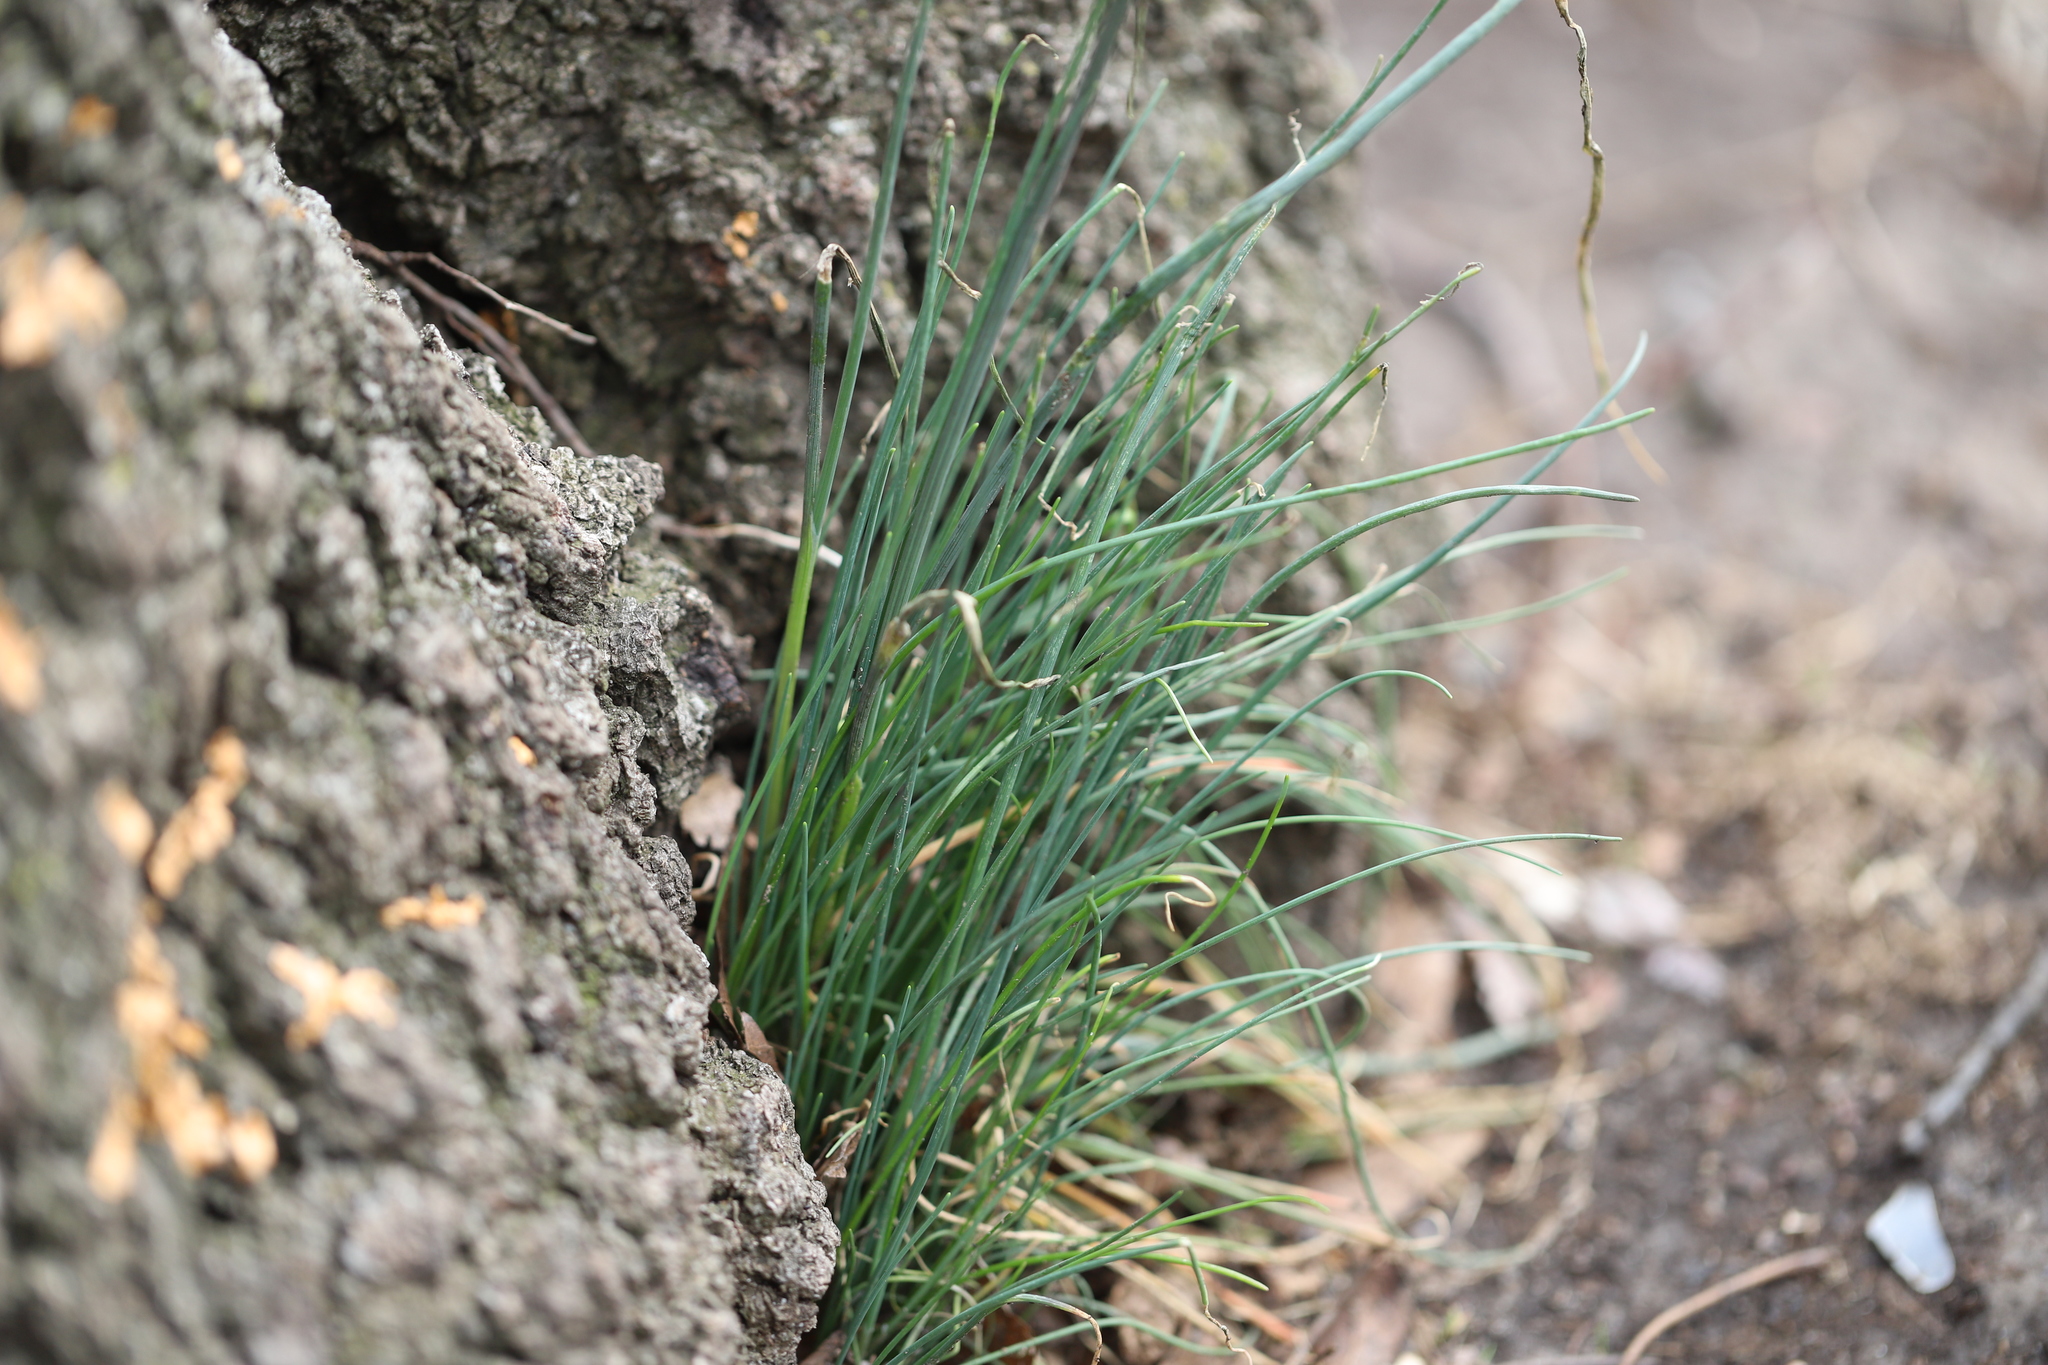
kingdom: Plantae
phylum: Tracheophyta
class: Liliopsida
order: Asparagales
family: Amaryllidaceae
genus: Allium
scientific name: Allium vineale
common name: Crow garlic
